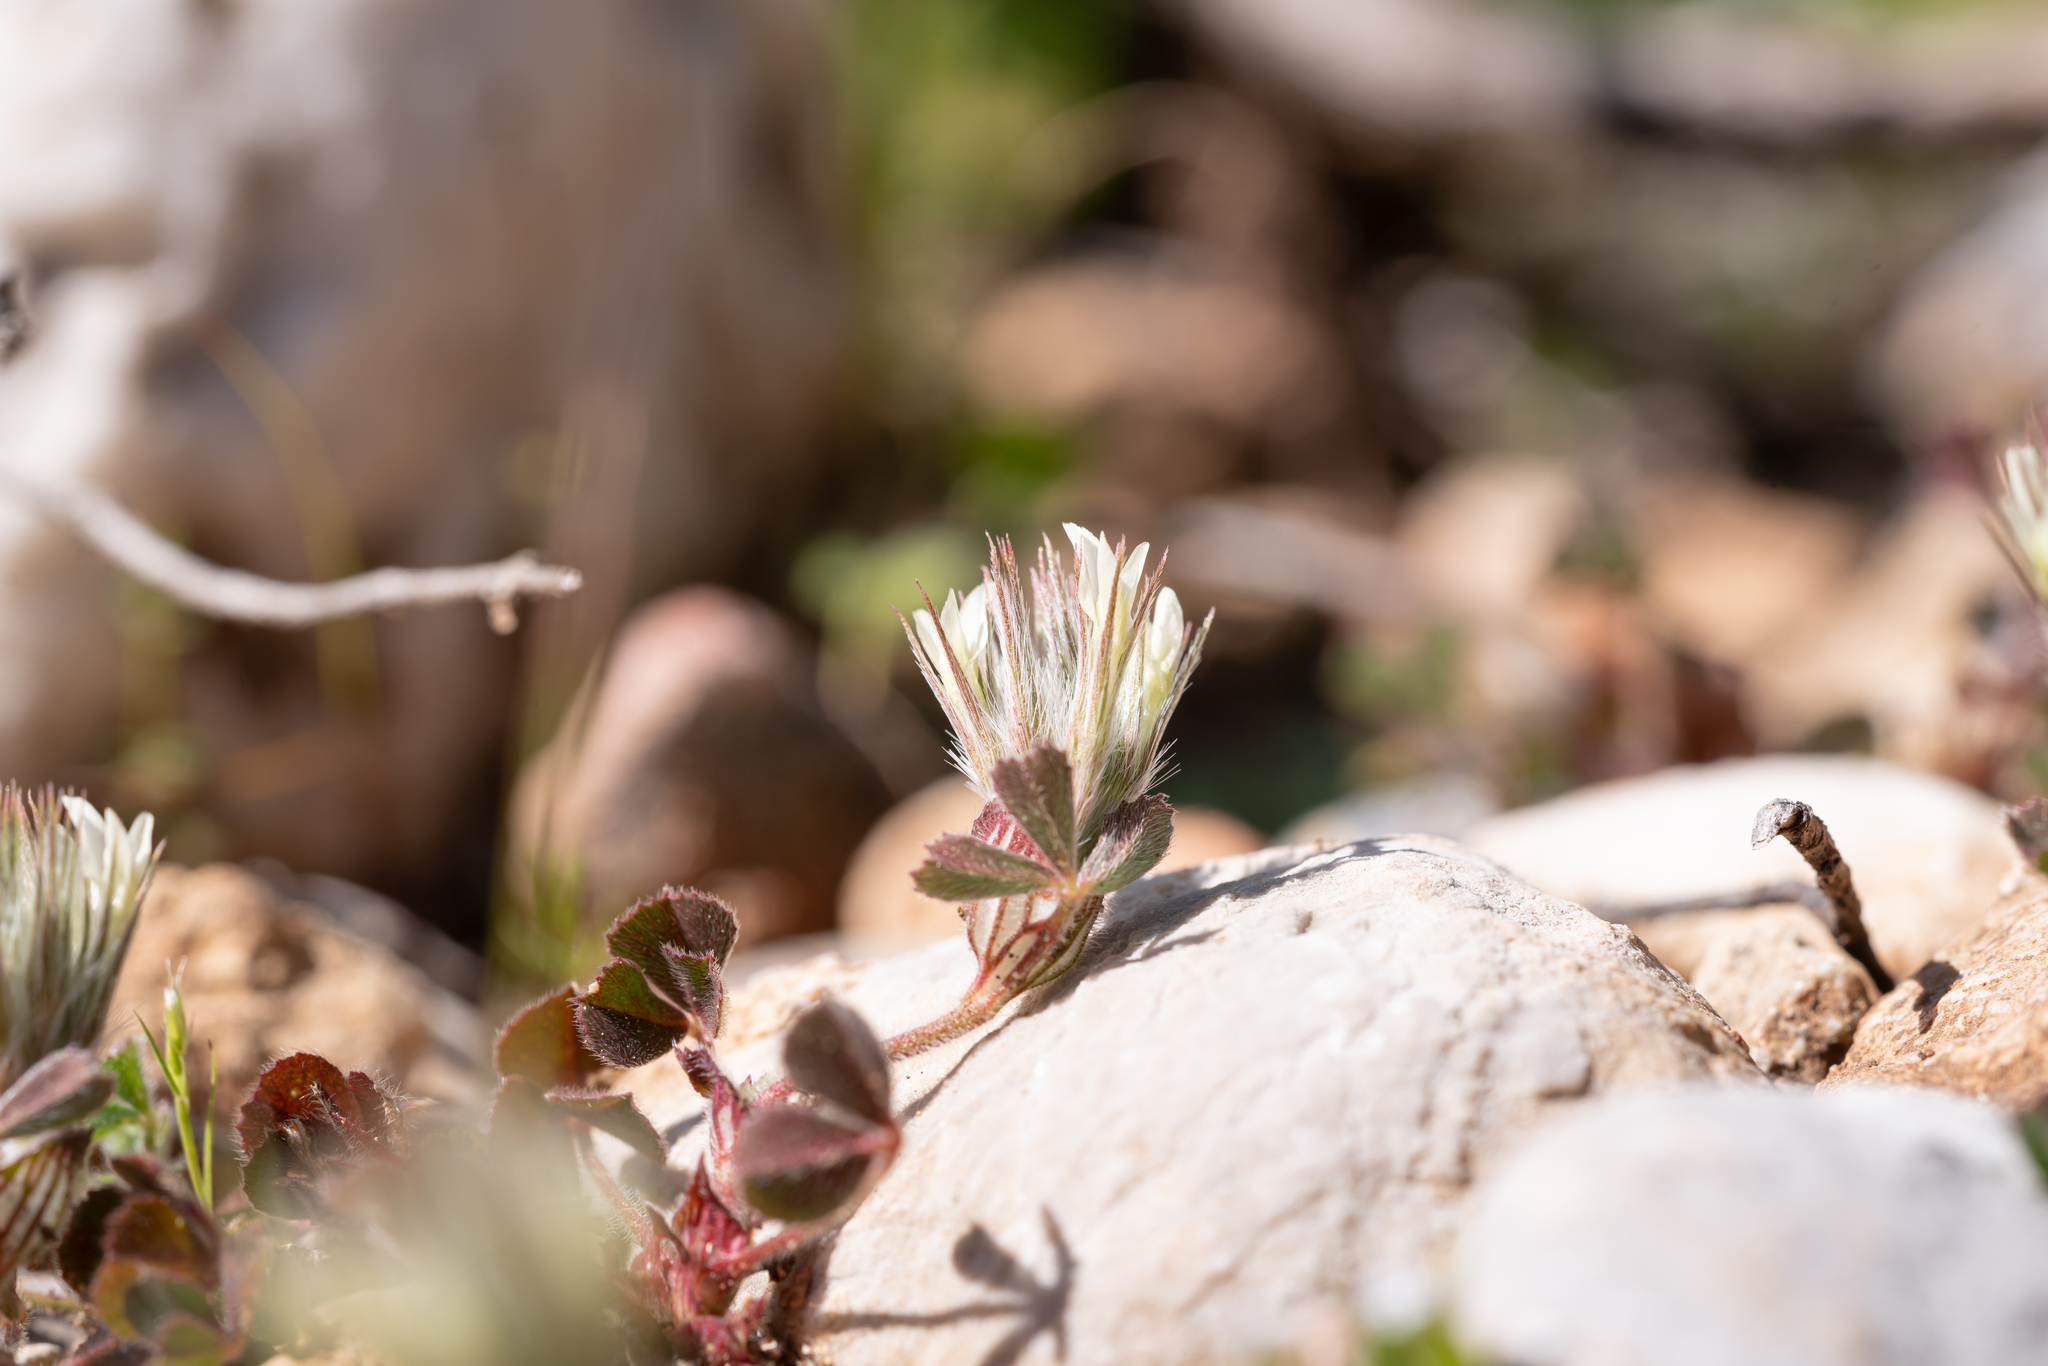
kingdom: Plantae
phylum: Tracheophyta
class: Magnoliopsida
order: Fabales
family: Fabaceae
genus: Trifolium
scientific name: Trifolium stellatum
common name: Starry clover
